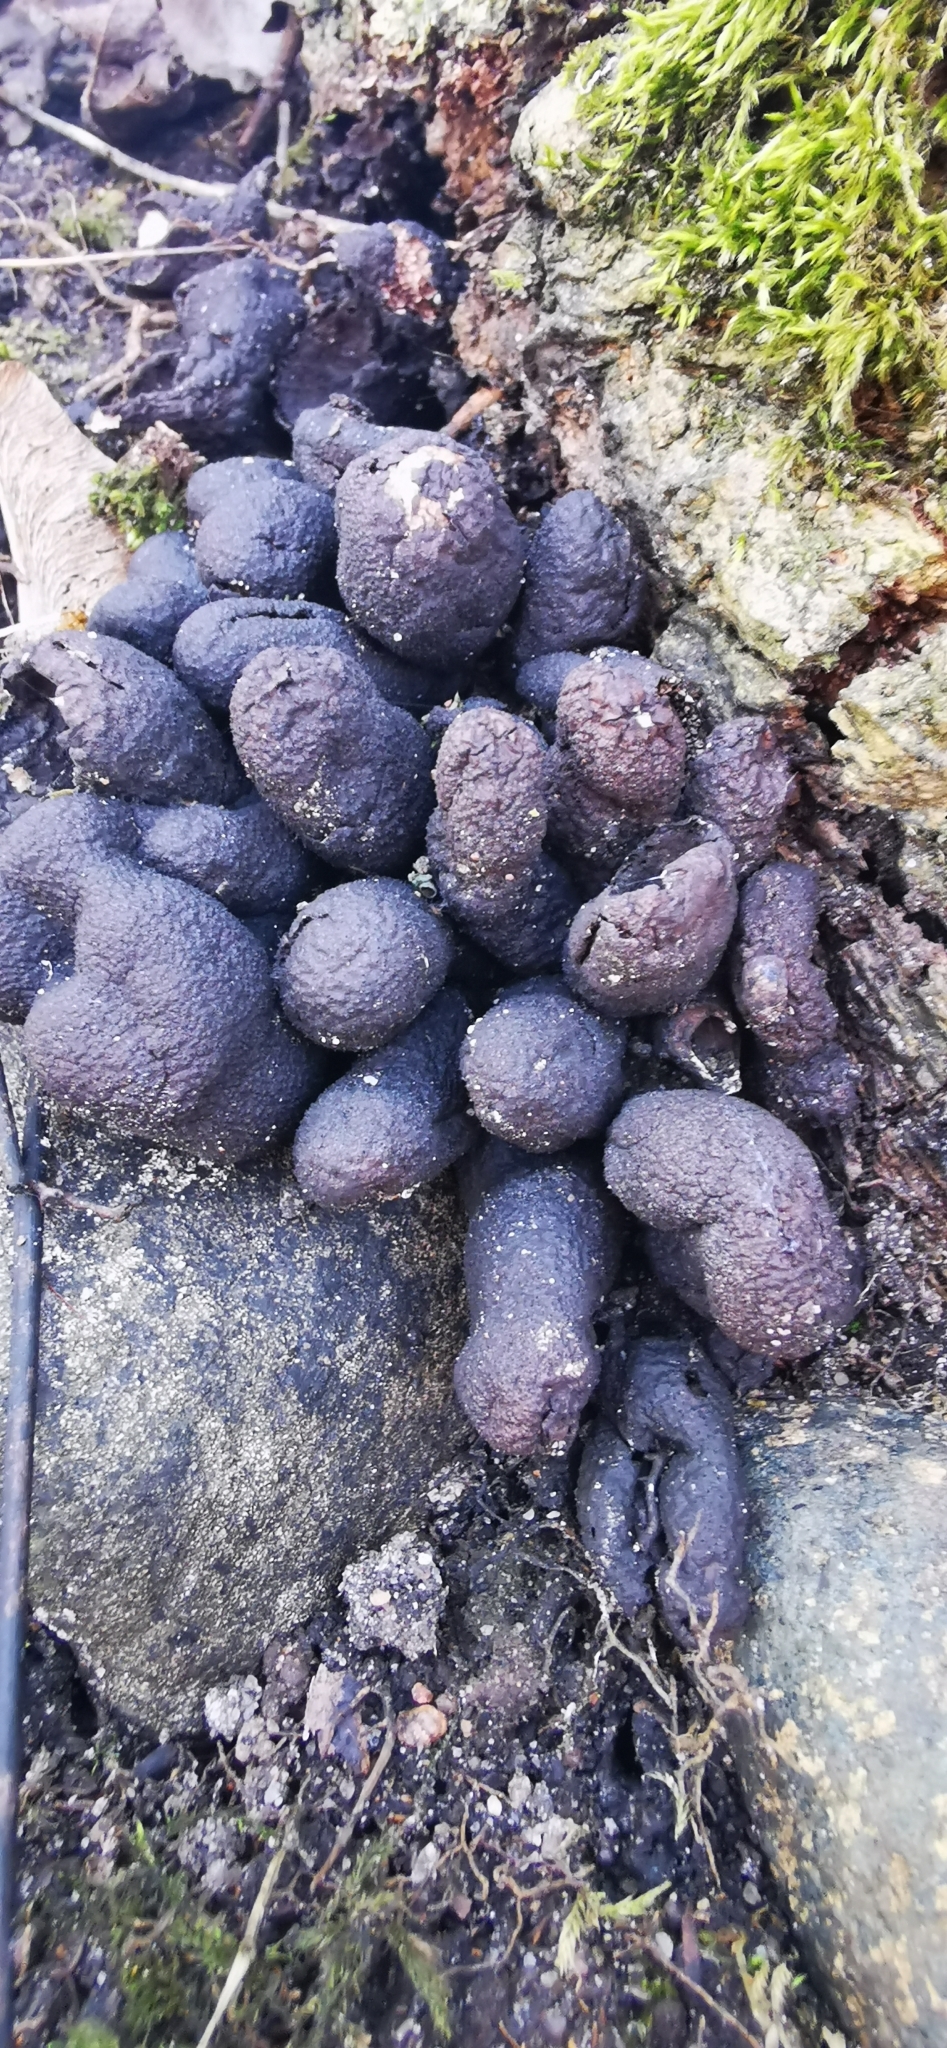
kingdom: Fungi
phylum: Ascomycota
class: Sordariomycetes
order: Xylariales
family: Xylariaceae
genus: Xylaria
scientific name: Xylaria polymorpha
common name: Dead man's fingers
